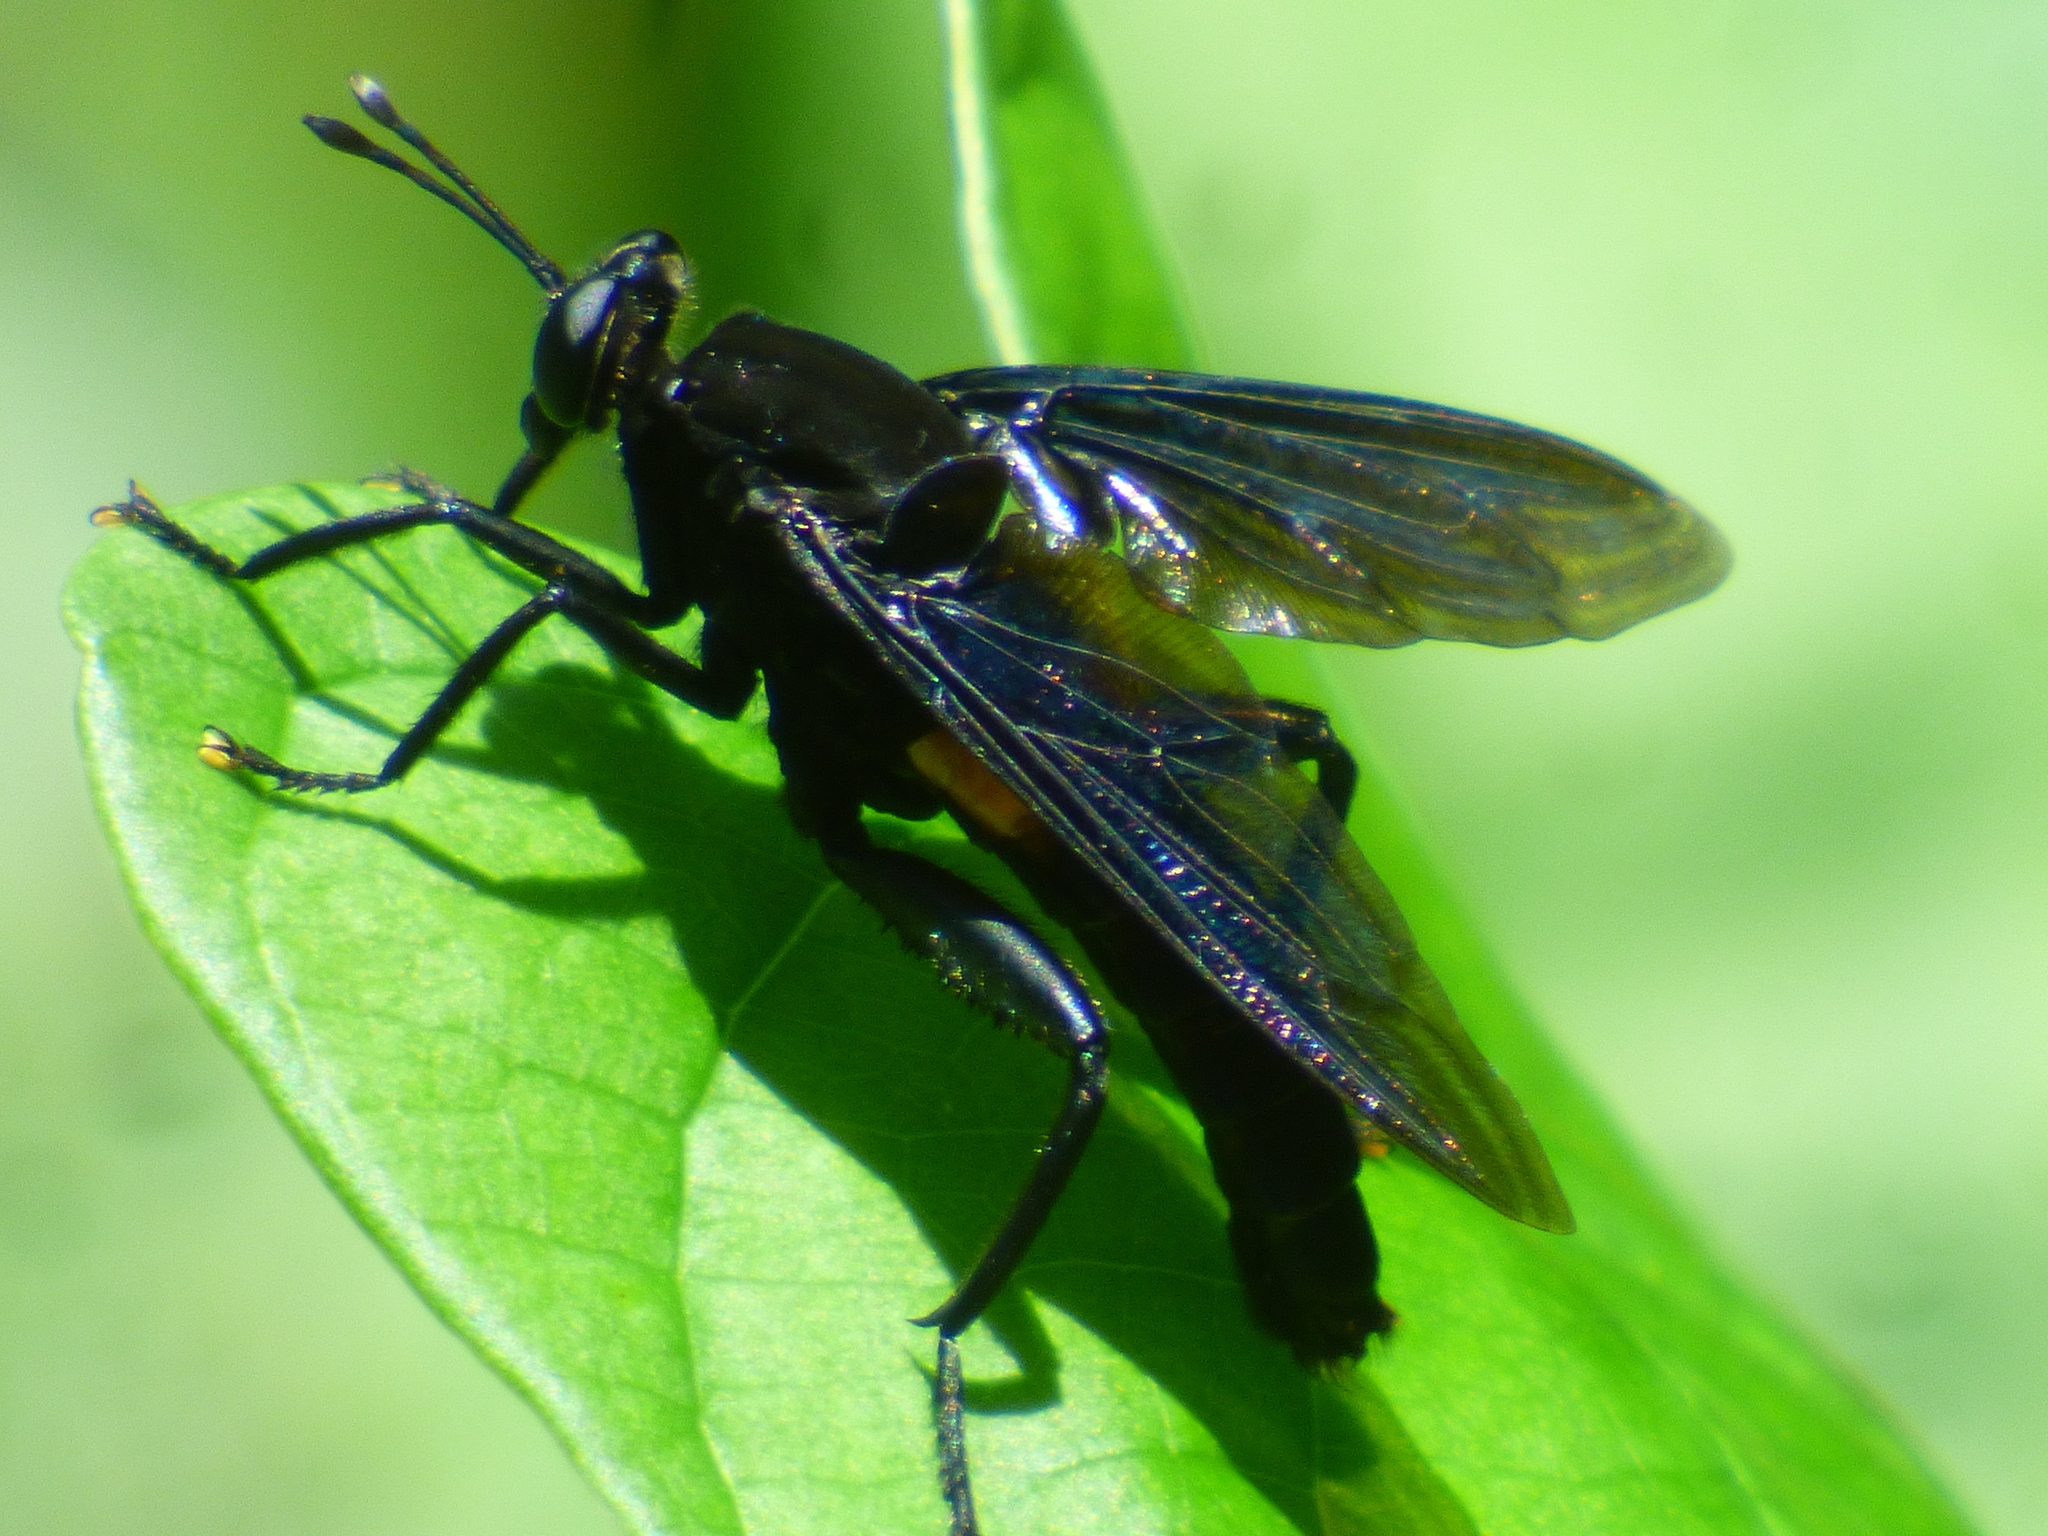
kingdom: Animalia
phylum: Arthropoda
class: Insecta
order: Diptera
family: Mydidae
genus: Mydas
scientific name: Mydas clavatus
